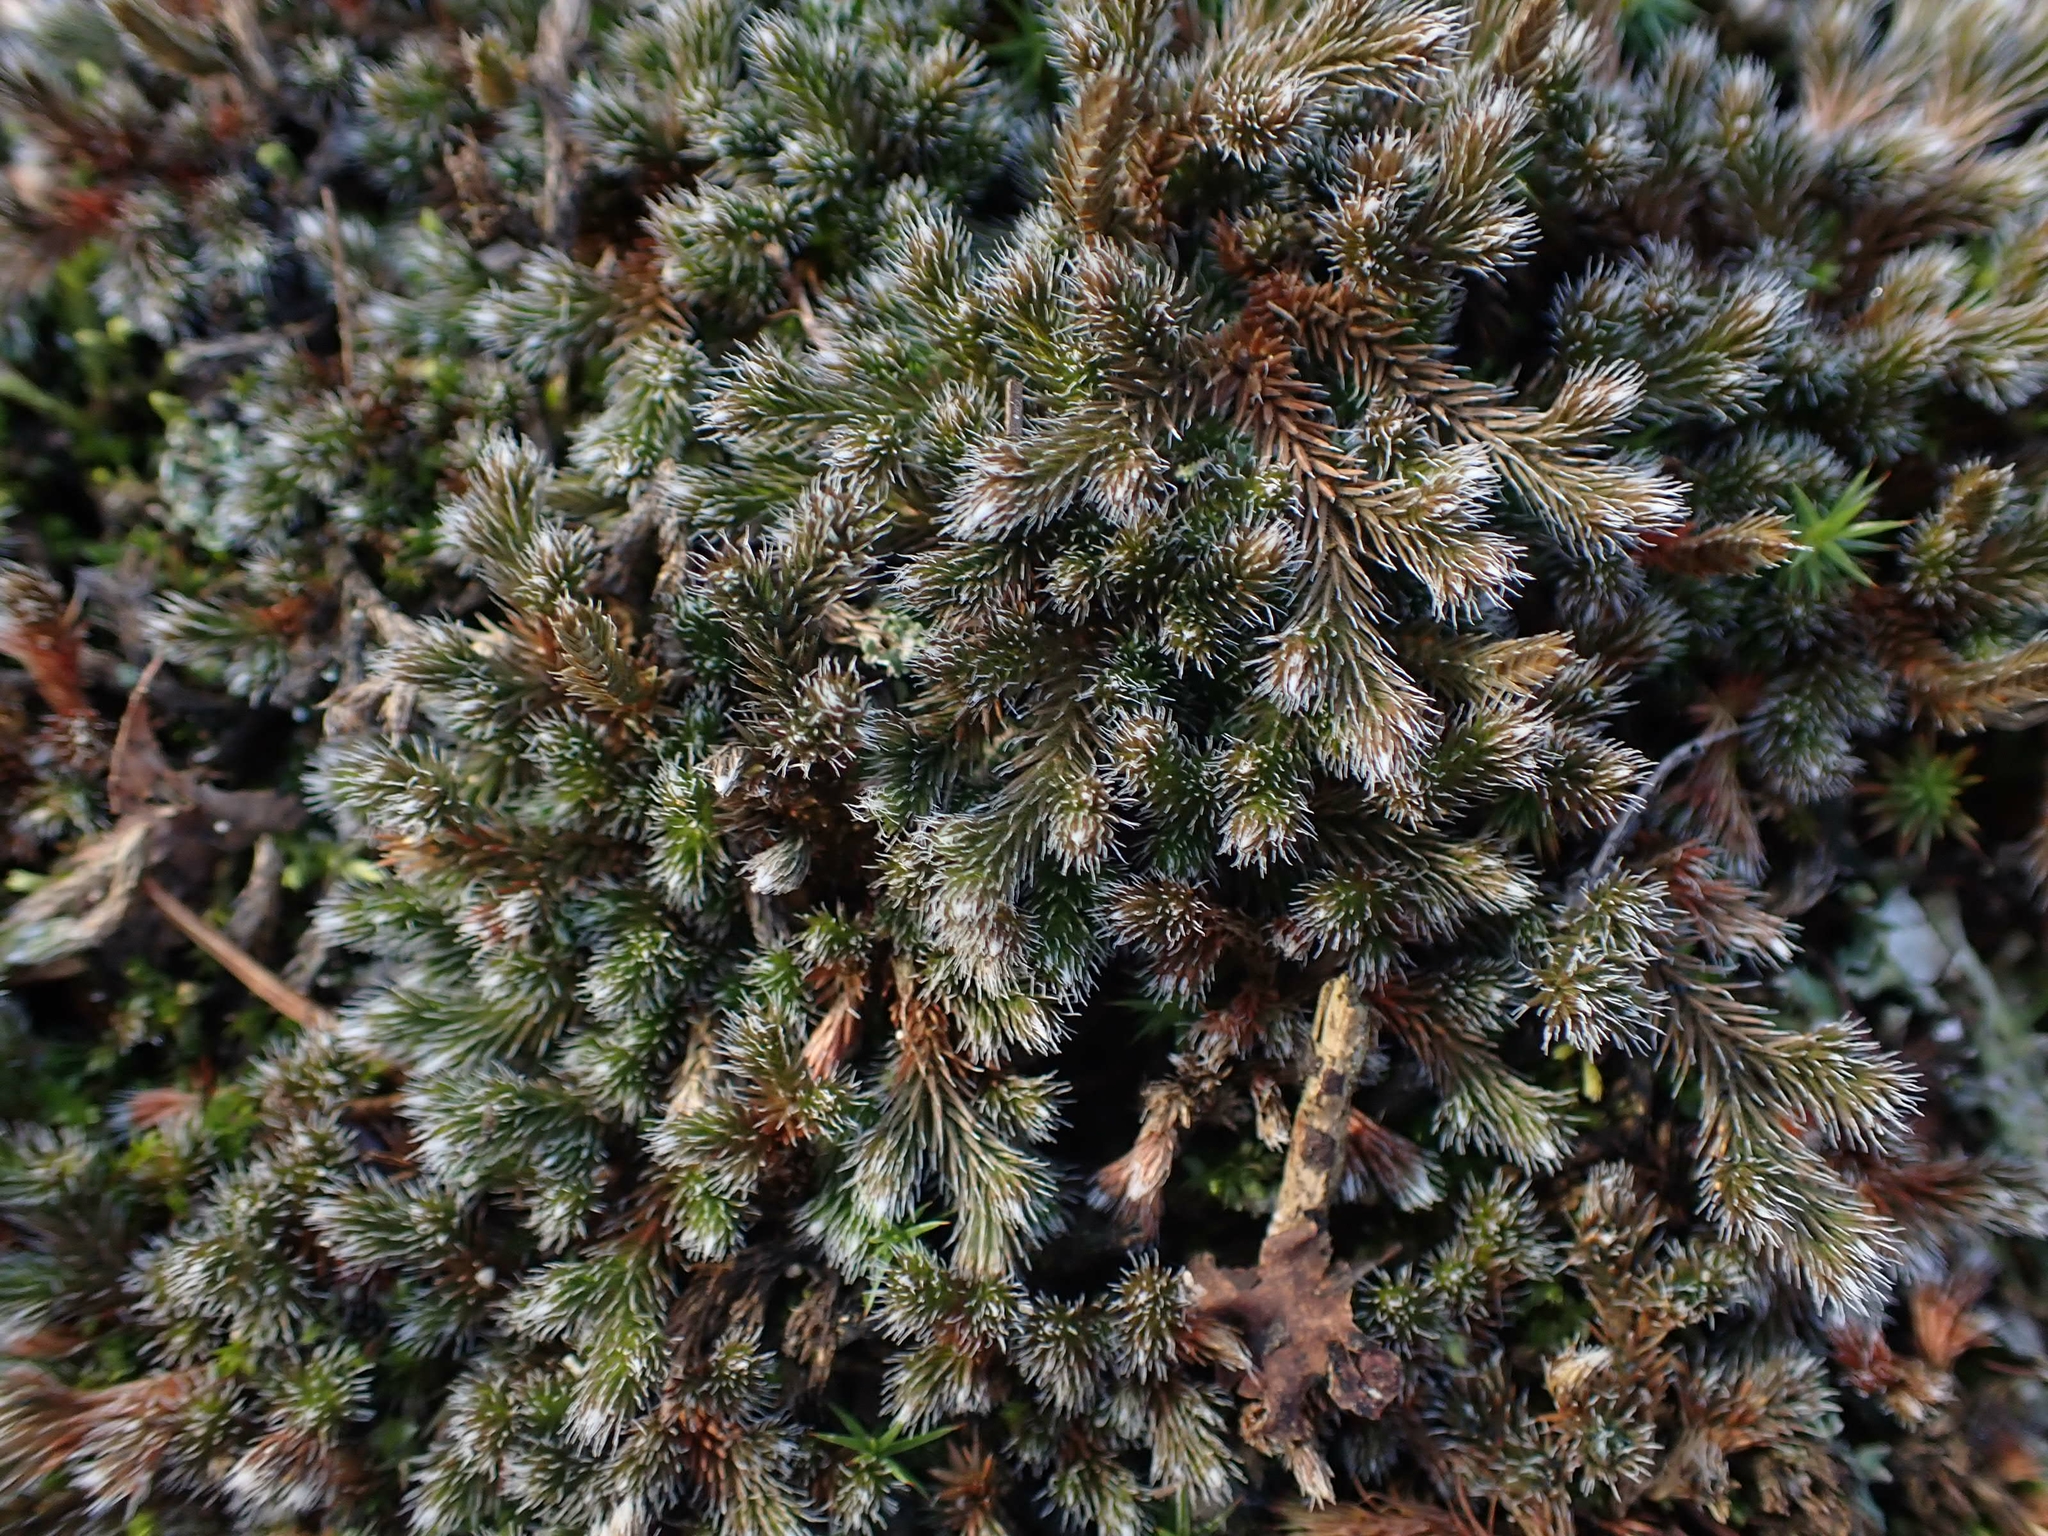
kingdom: Plantae
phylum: Tracheophyta
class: Lycopodiopsida
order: Selaginellales
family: Selaginellaceae
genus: Selaginella
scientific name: Selaginella rupestris
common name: Dwarf spikemoss
